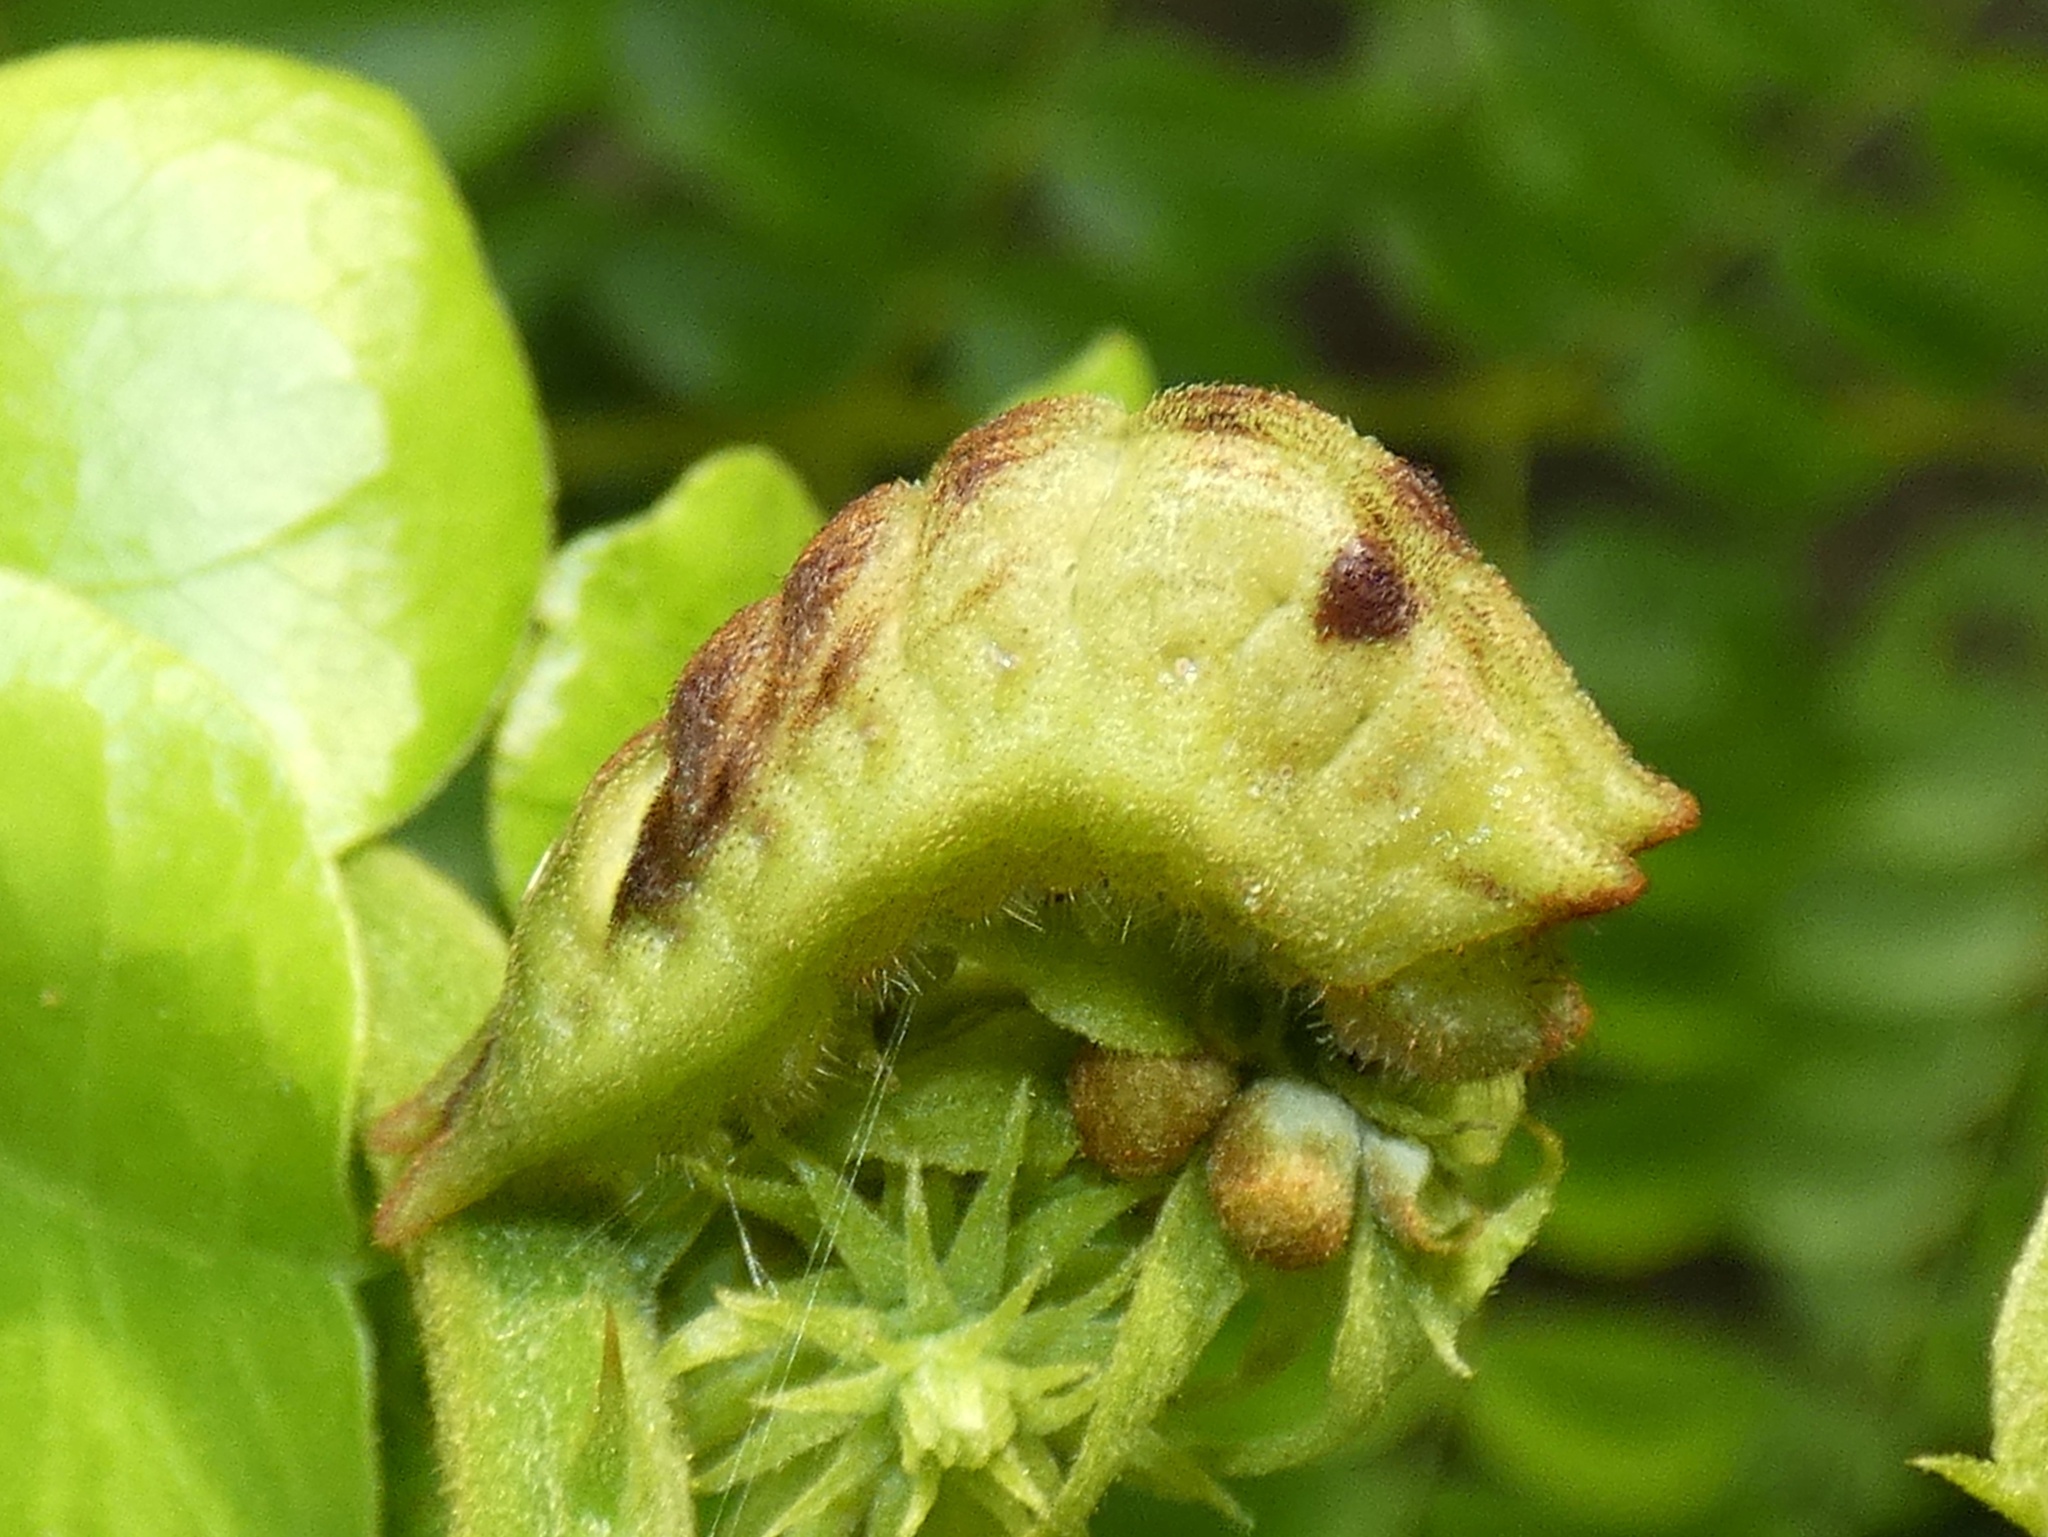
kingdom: Animalia
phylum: Arthropoda
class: Insecta
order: Lepidoptera
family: Lycaenidae
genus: Panthiades
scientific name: Panthiades bitias
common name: Bitias hairstreak
